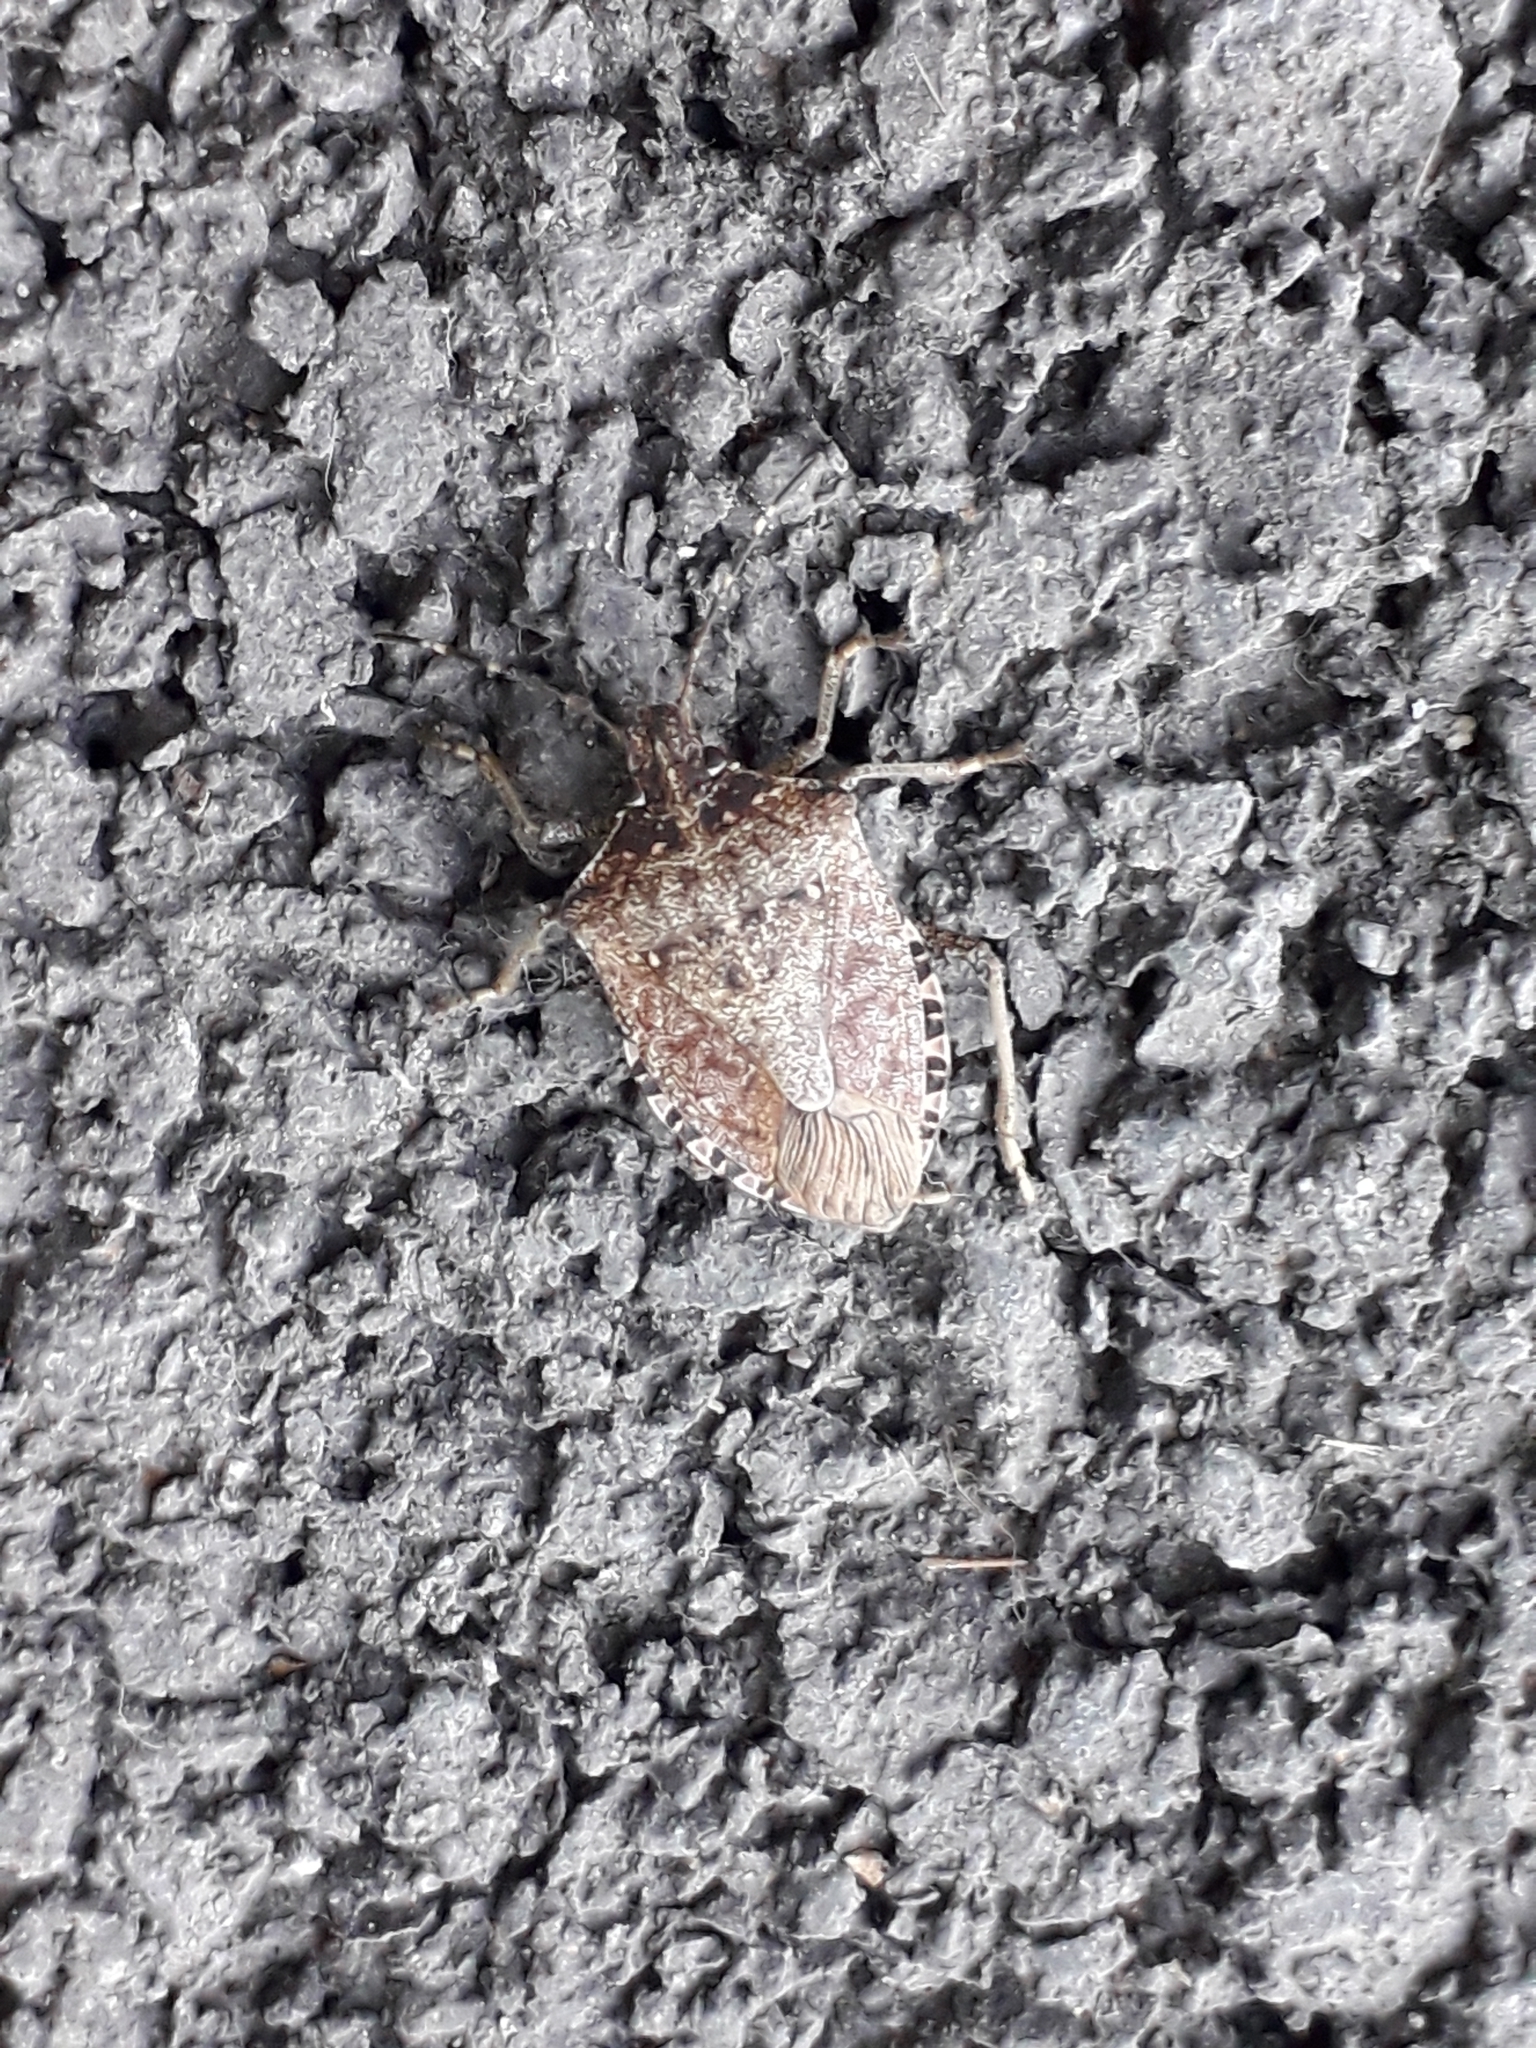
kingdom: Animalia
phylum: Arthropoda
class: Insecta
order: Hemiptera
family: Pentatomidae
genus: Halyomorpha
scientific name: Halyomorpha halys
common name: Brown marmorated stink bug
